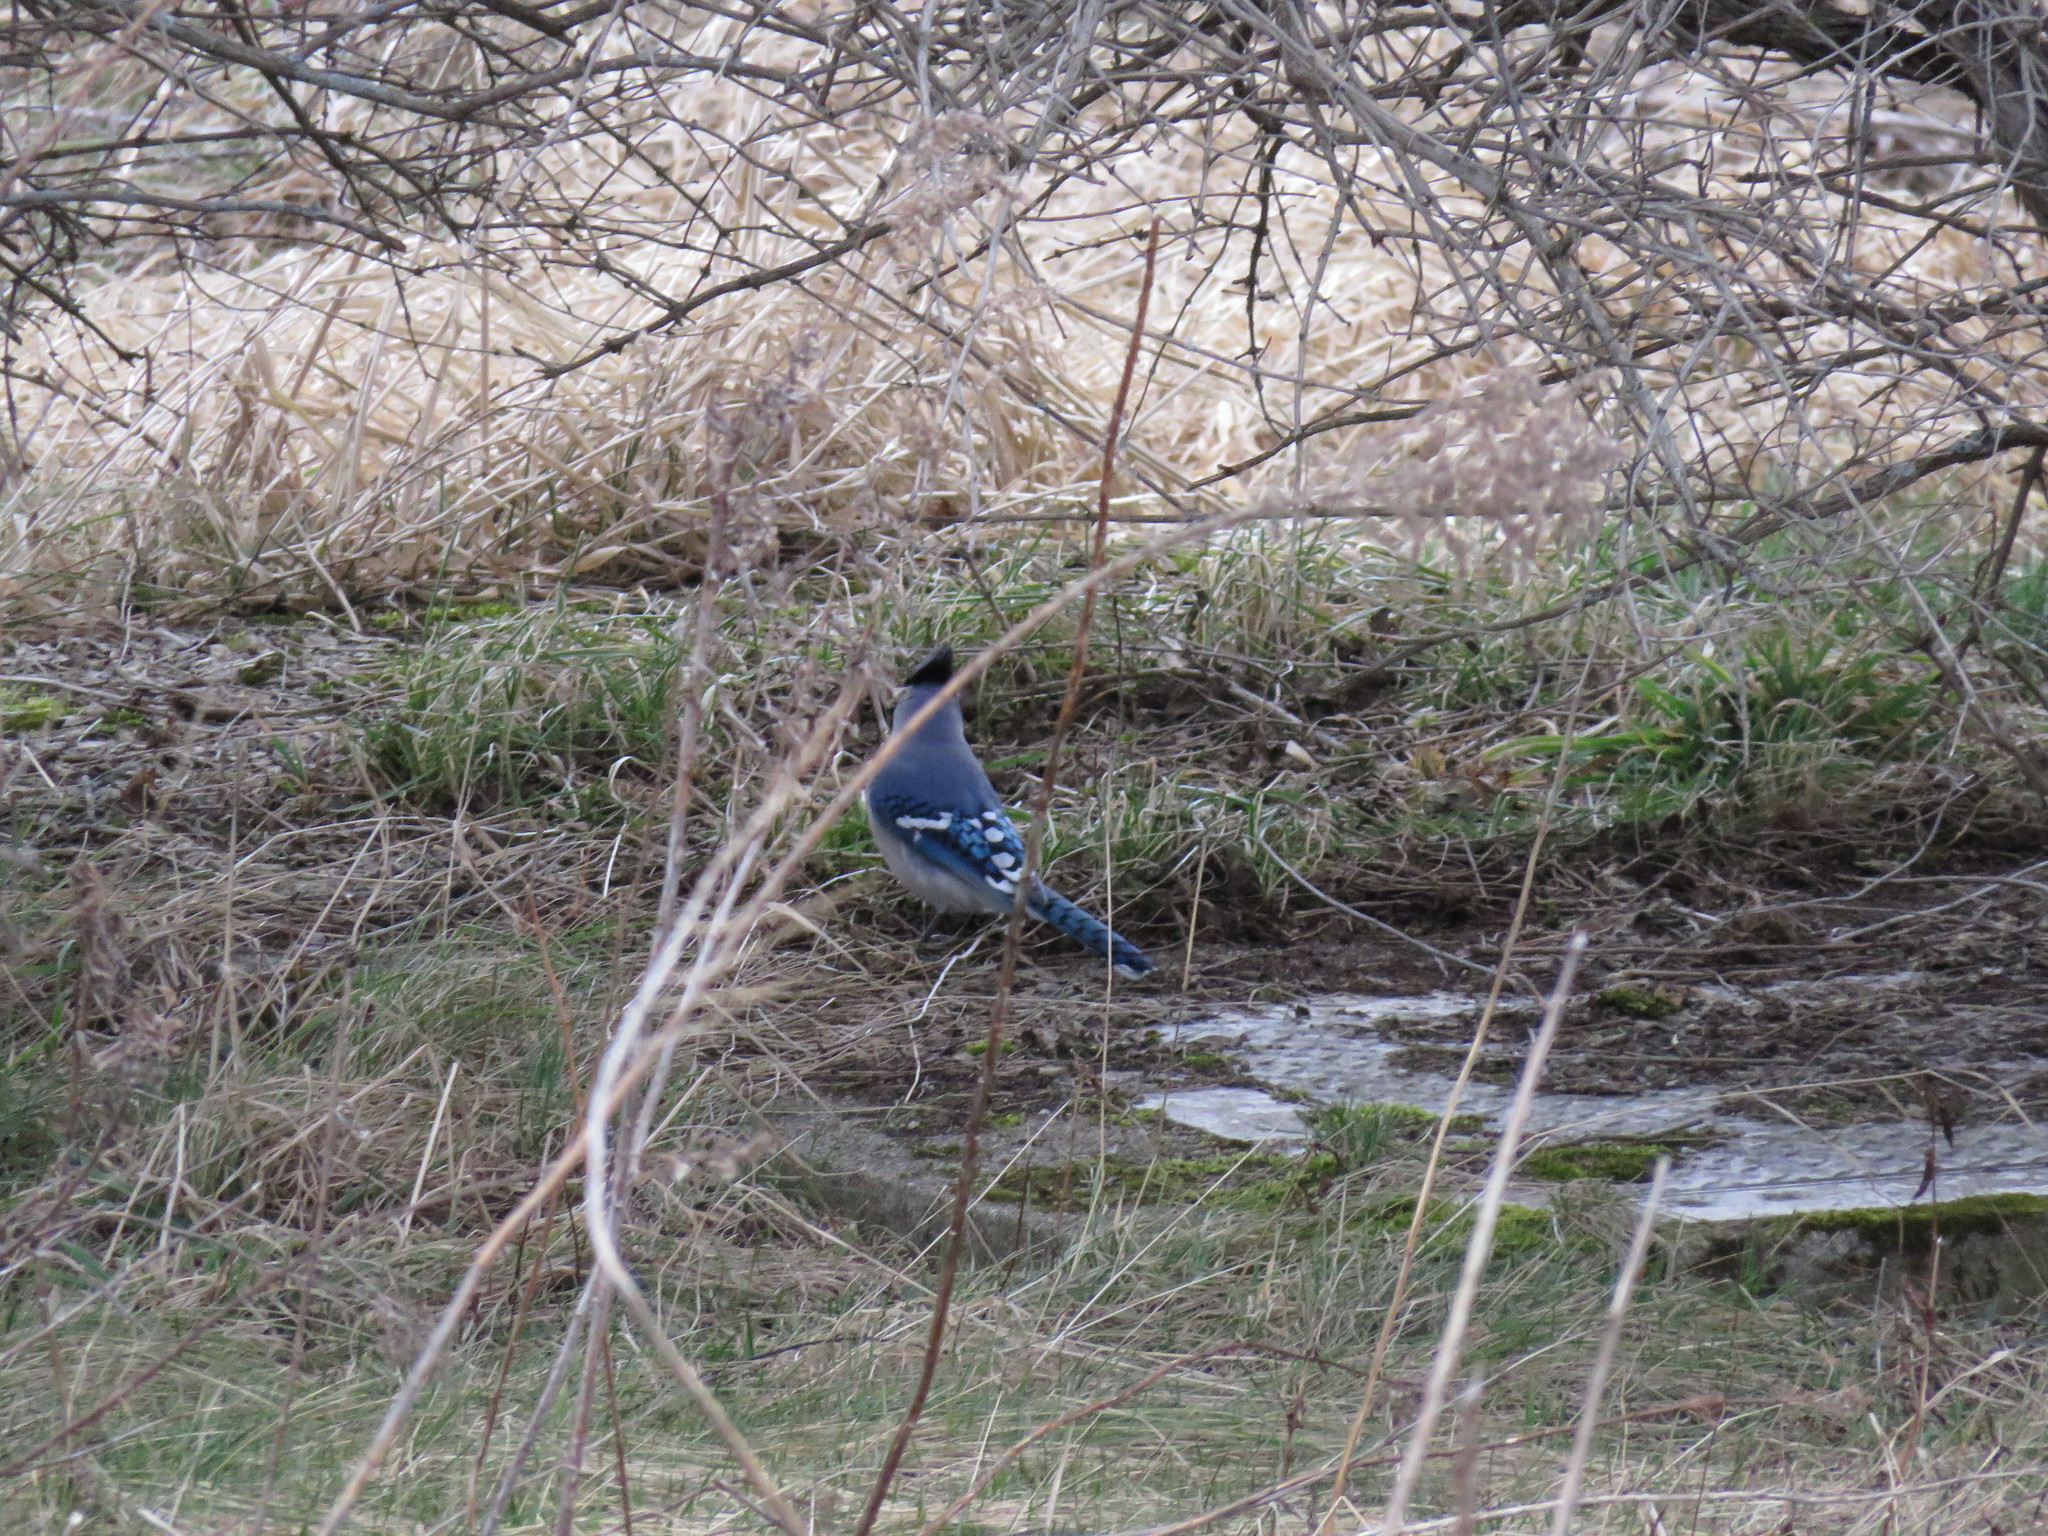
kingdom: Animalia
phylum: Chordata
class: Aves
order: Passeriformes
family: Corvidae
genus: Cyanocitta
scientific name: Cyanocitta cristata
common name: Blue jay
